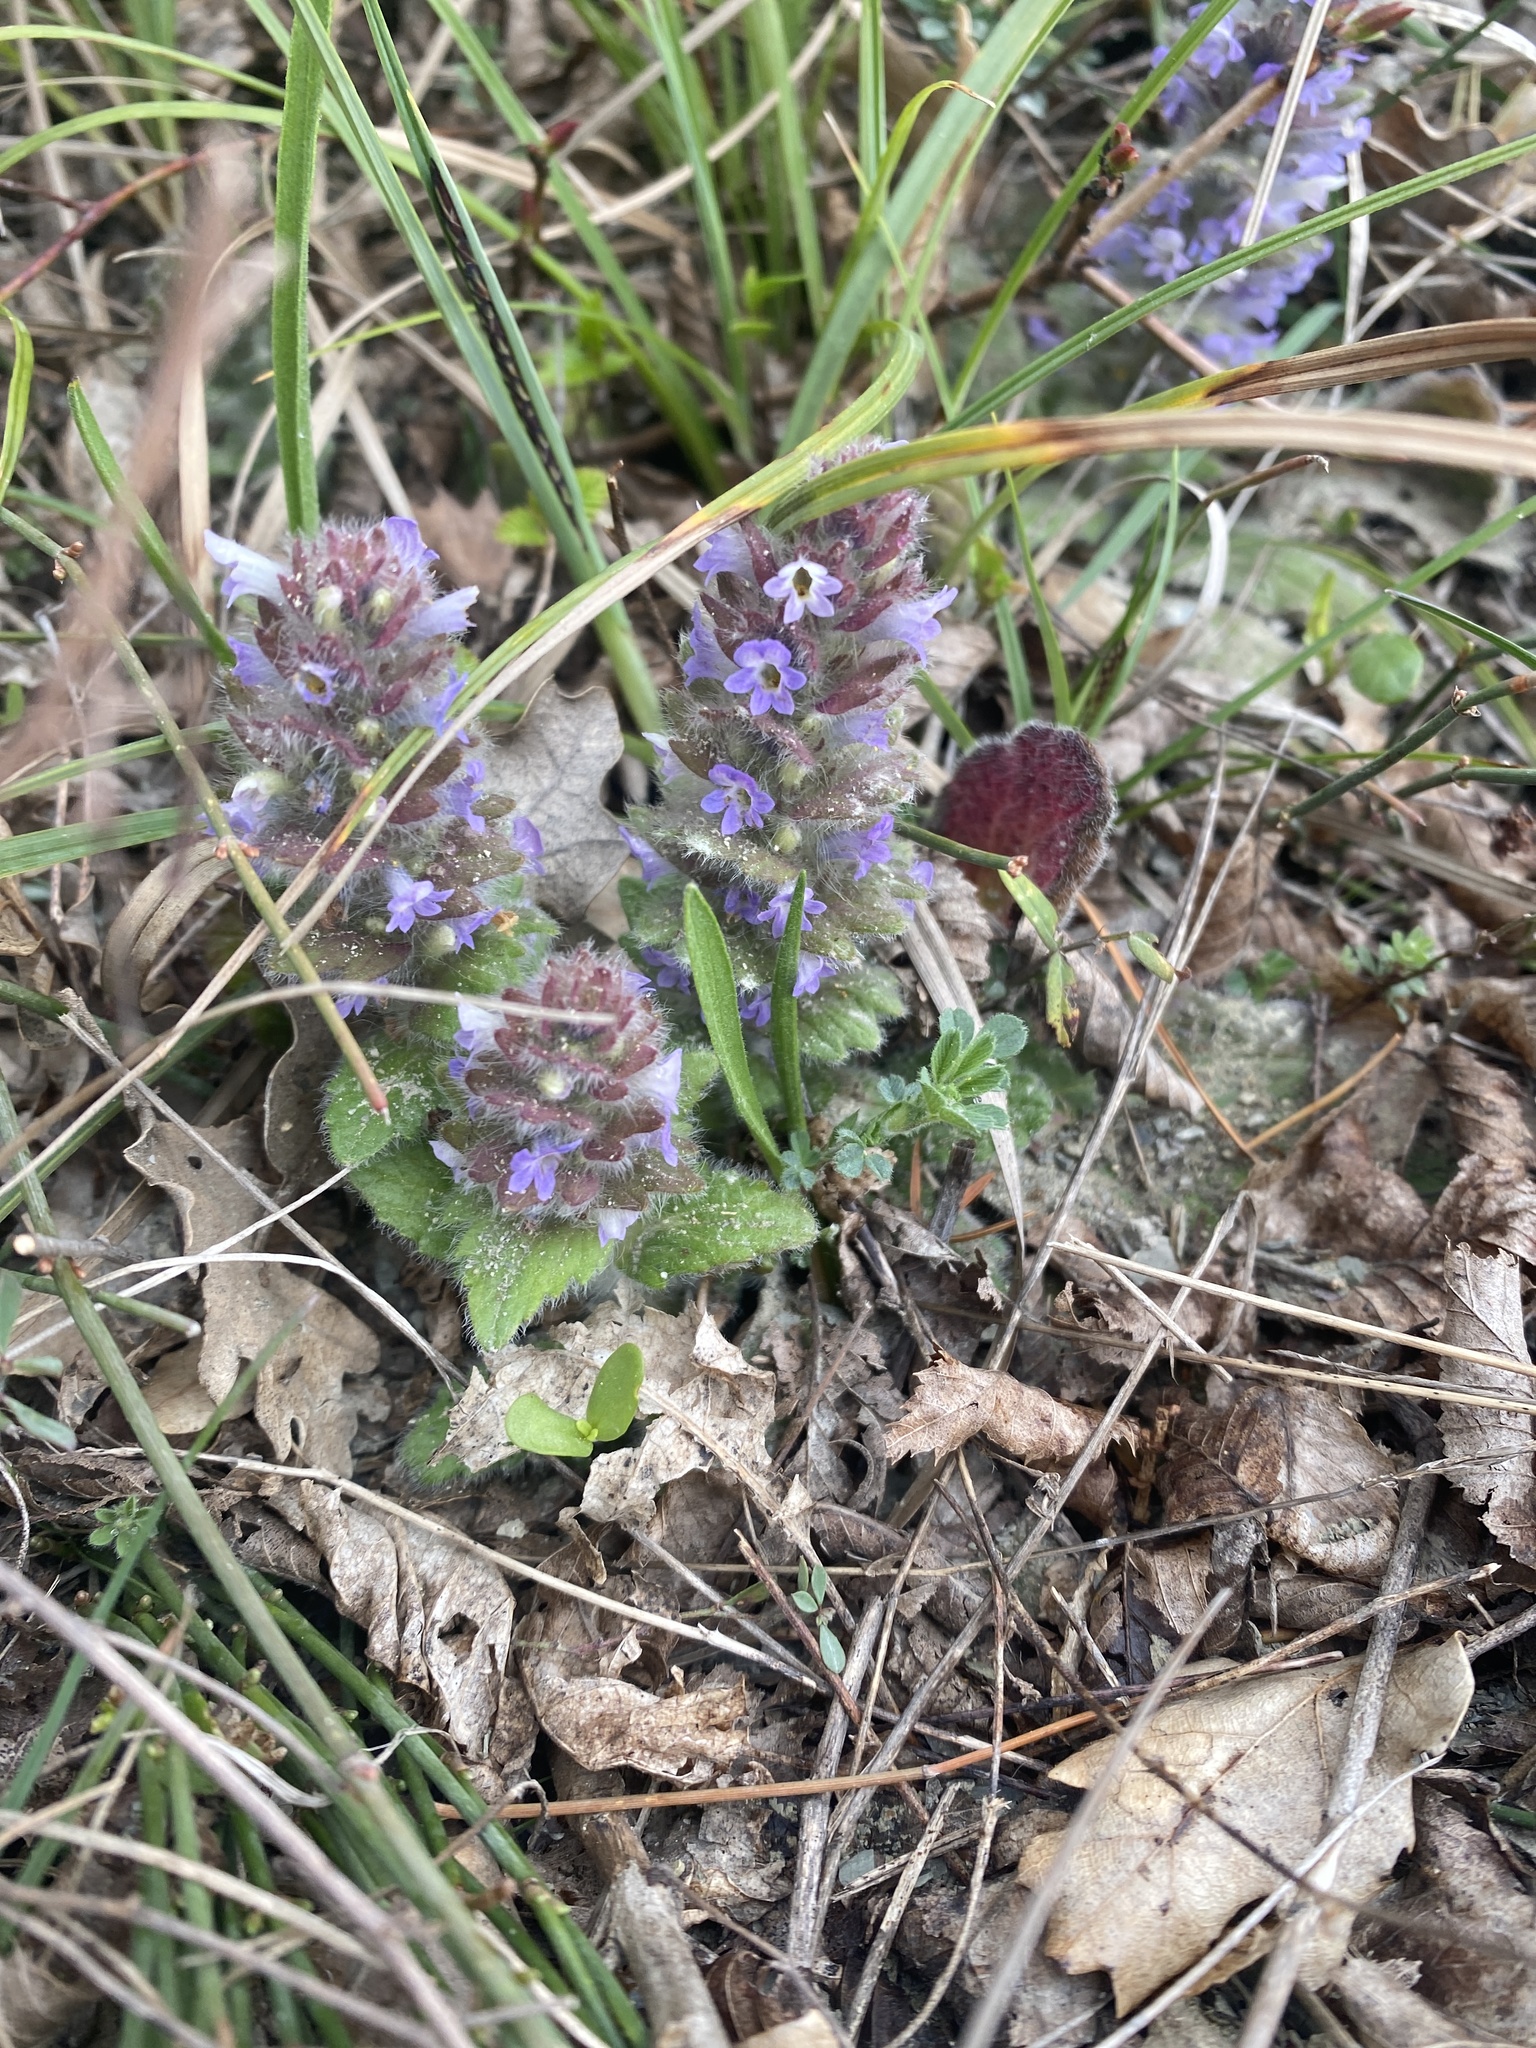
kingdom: Plantae
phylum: Tracheophyta
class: Magnoliopsida
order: Lamiales
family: Lamiaceae
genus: Ajuga
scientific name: Ajuga orientalis
